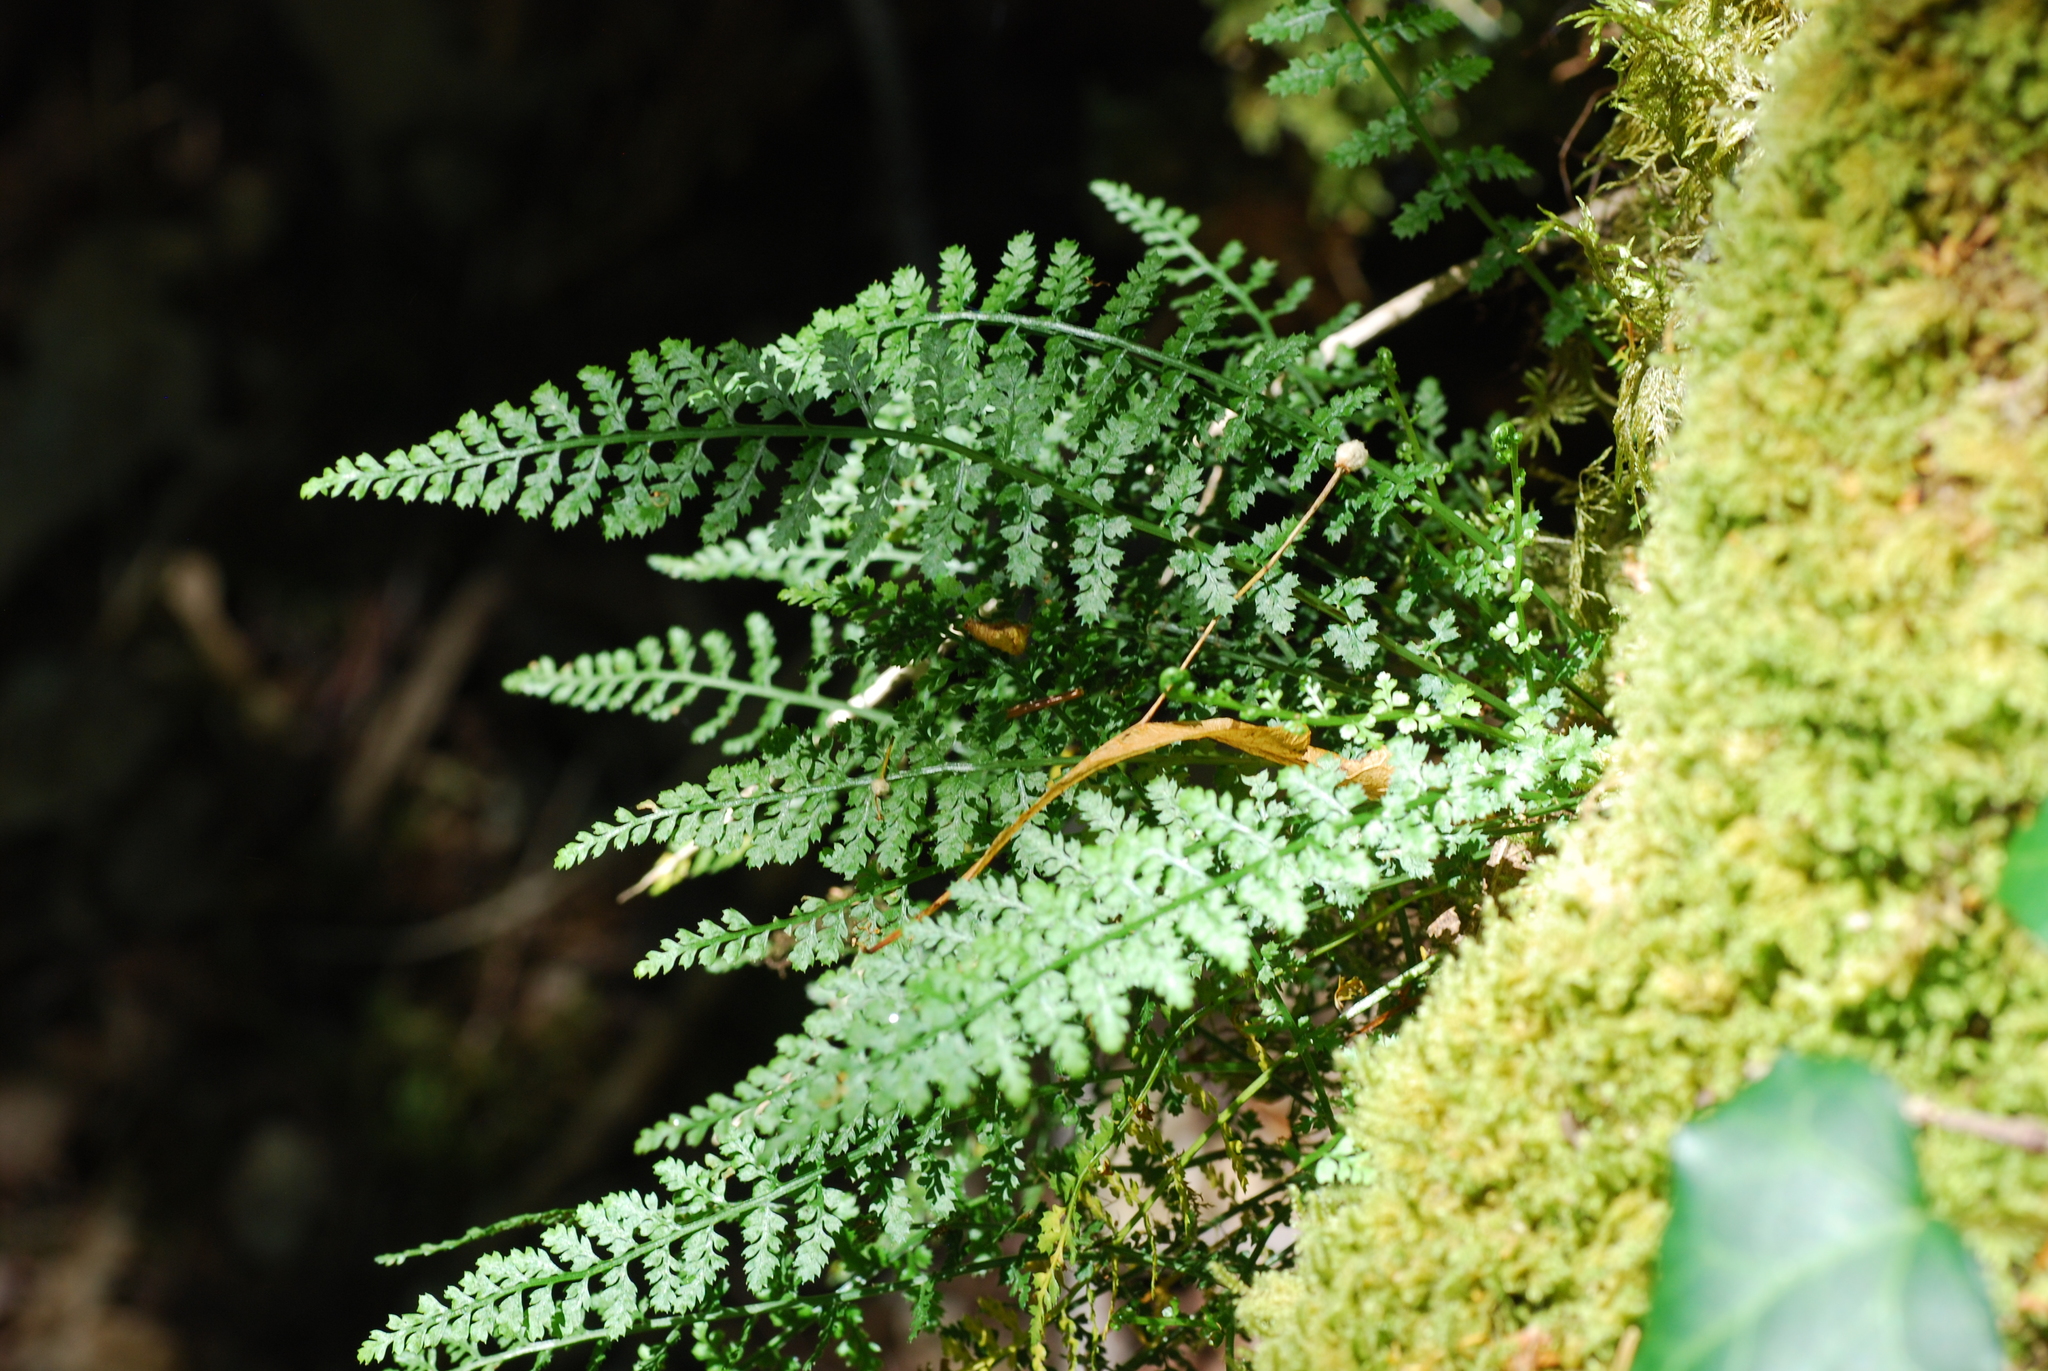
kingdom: Plantae
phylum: Tracheophyta
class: Polypodiopsida
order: Polypodiales
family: Aspleniaceae
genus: Asplenium
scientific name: Asplenium fontanum
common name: Fountain spleenwort
